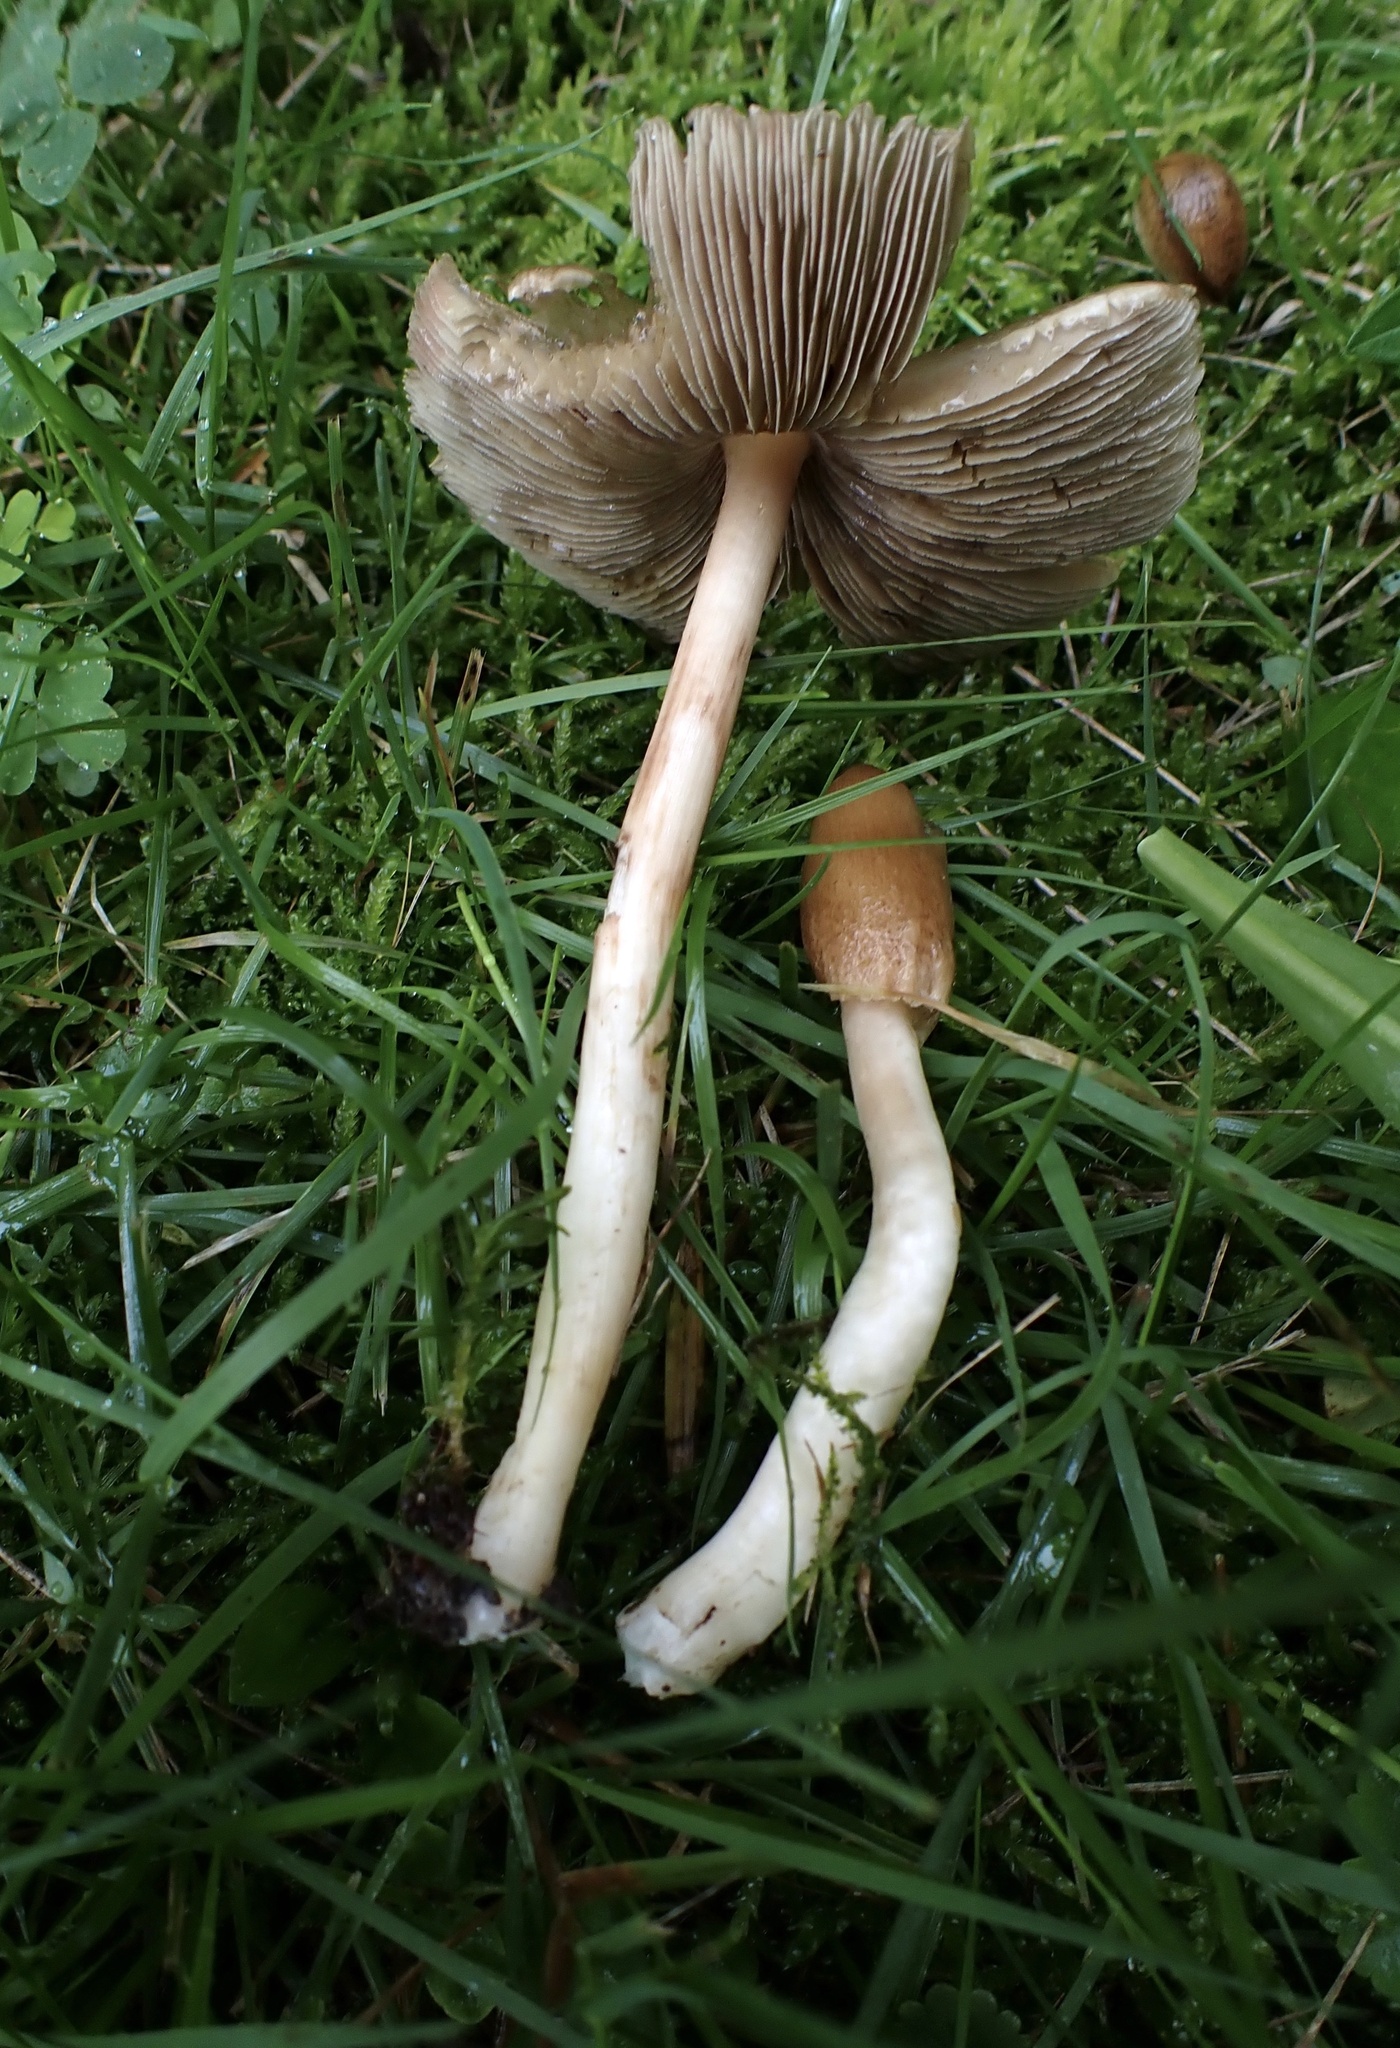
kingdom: Fungi
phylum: Basidiomycota
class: Agaricomycetes
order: Agaricales
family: Inocybaceae
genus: Inosperma
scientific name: Inosperma neobrunnescens
